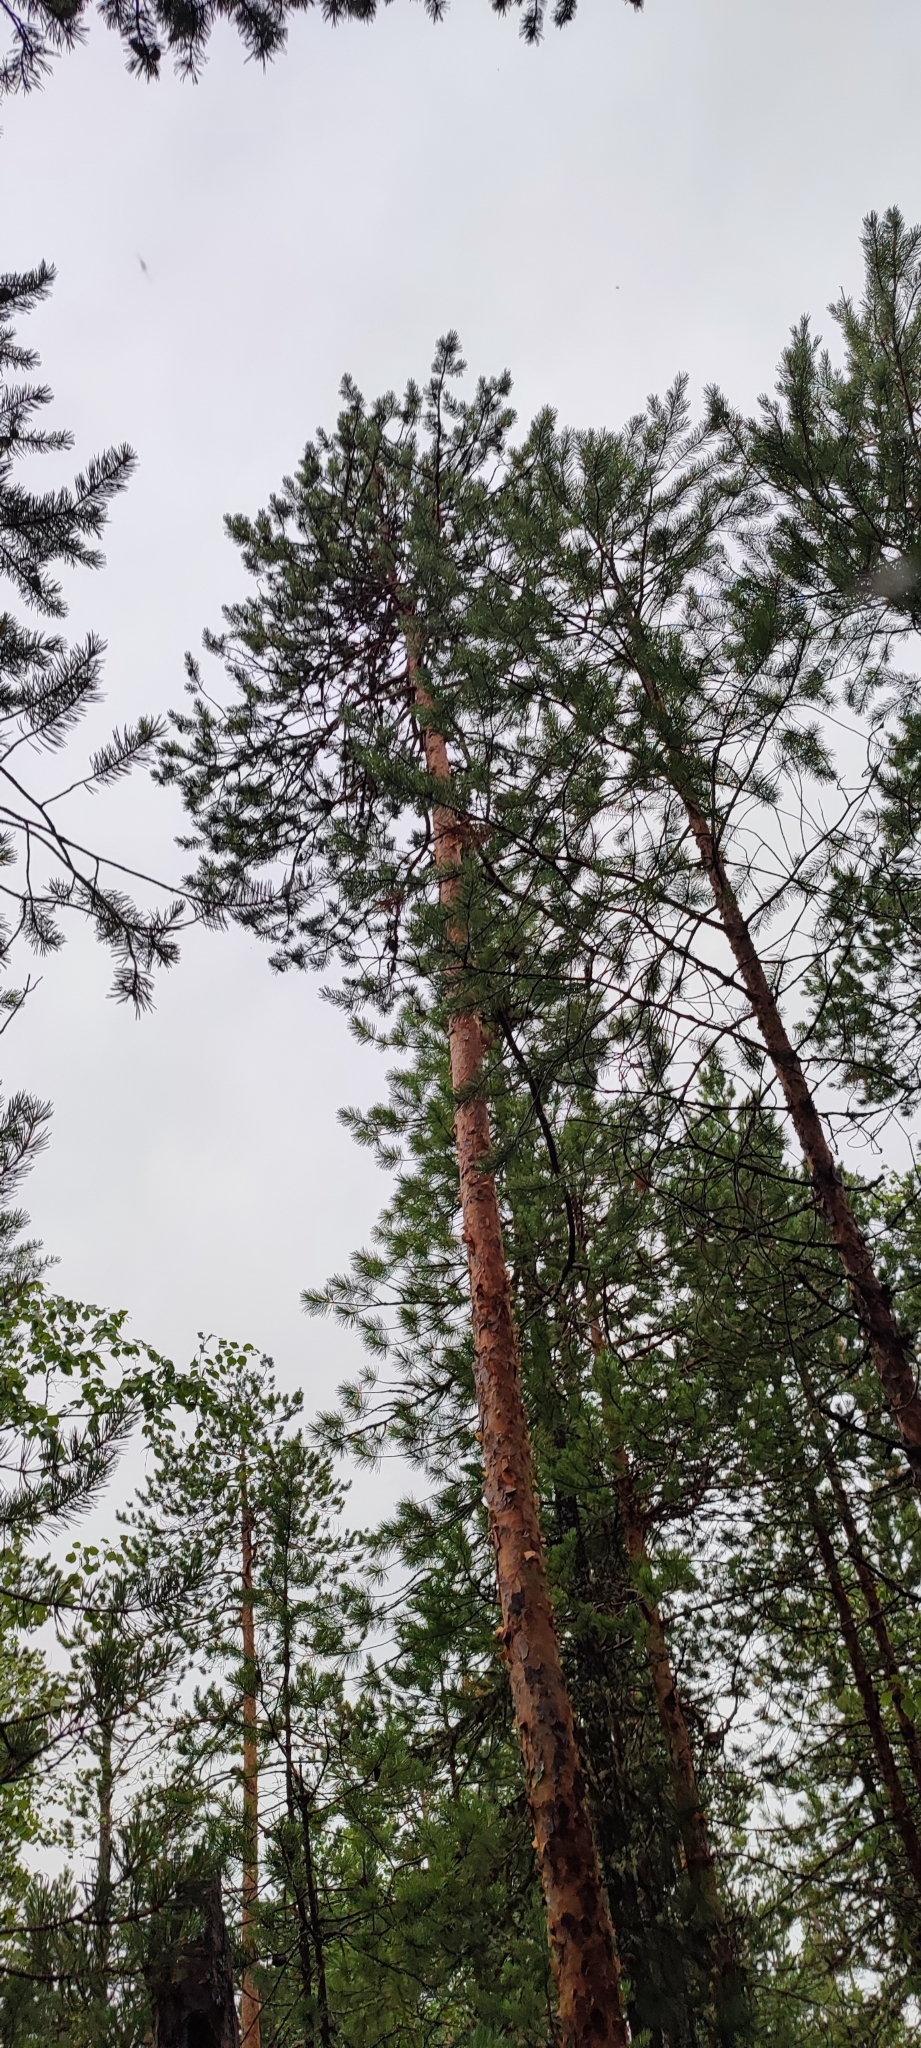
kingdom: Plantae
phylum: Tracheophyta
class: Pinopsida
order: Pinales
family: Pinaceae
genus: Pinus
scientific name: Pinus sylvestris
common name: Scots pine
